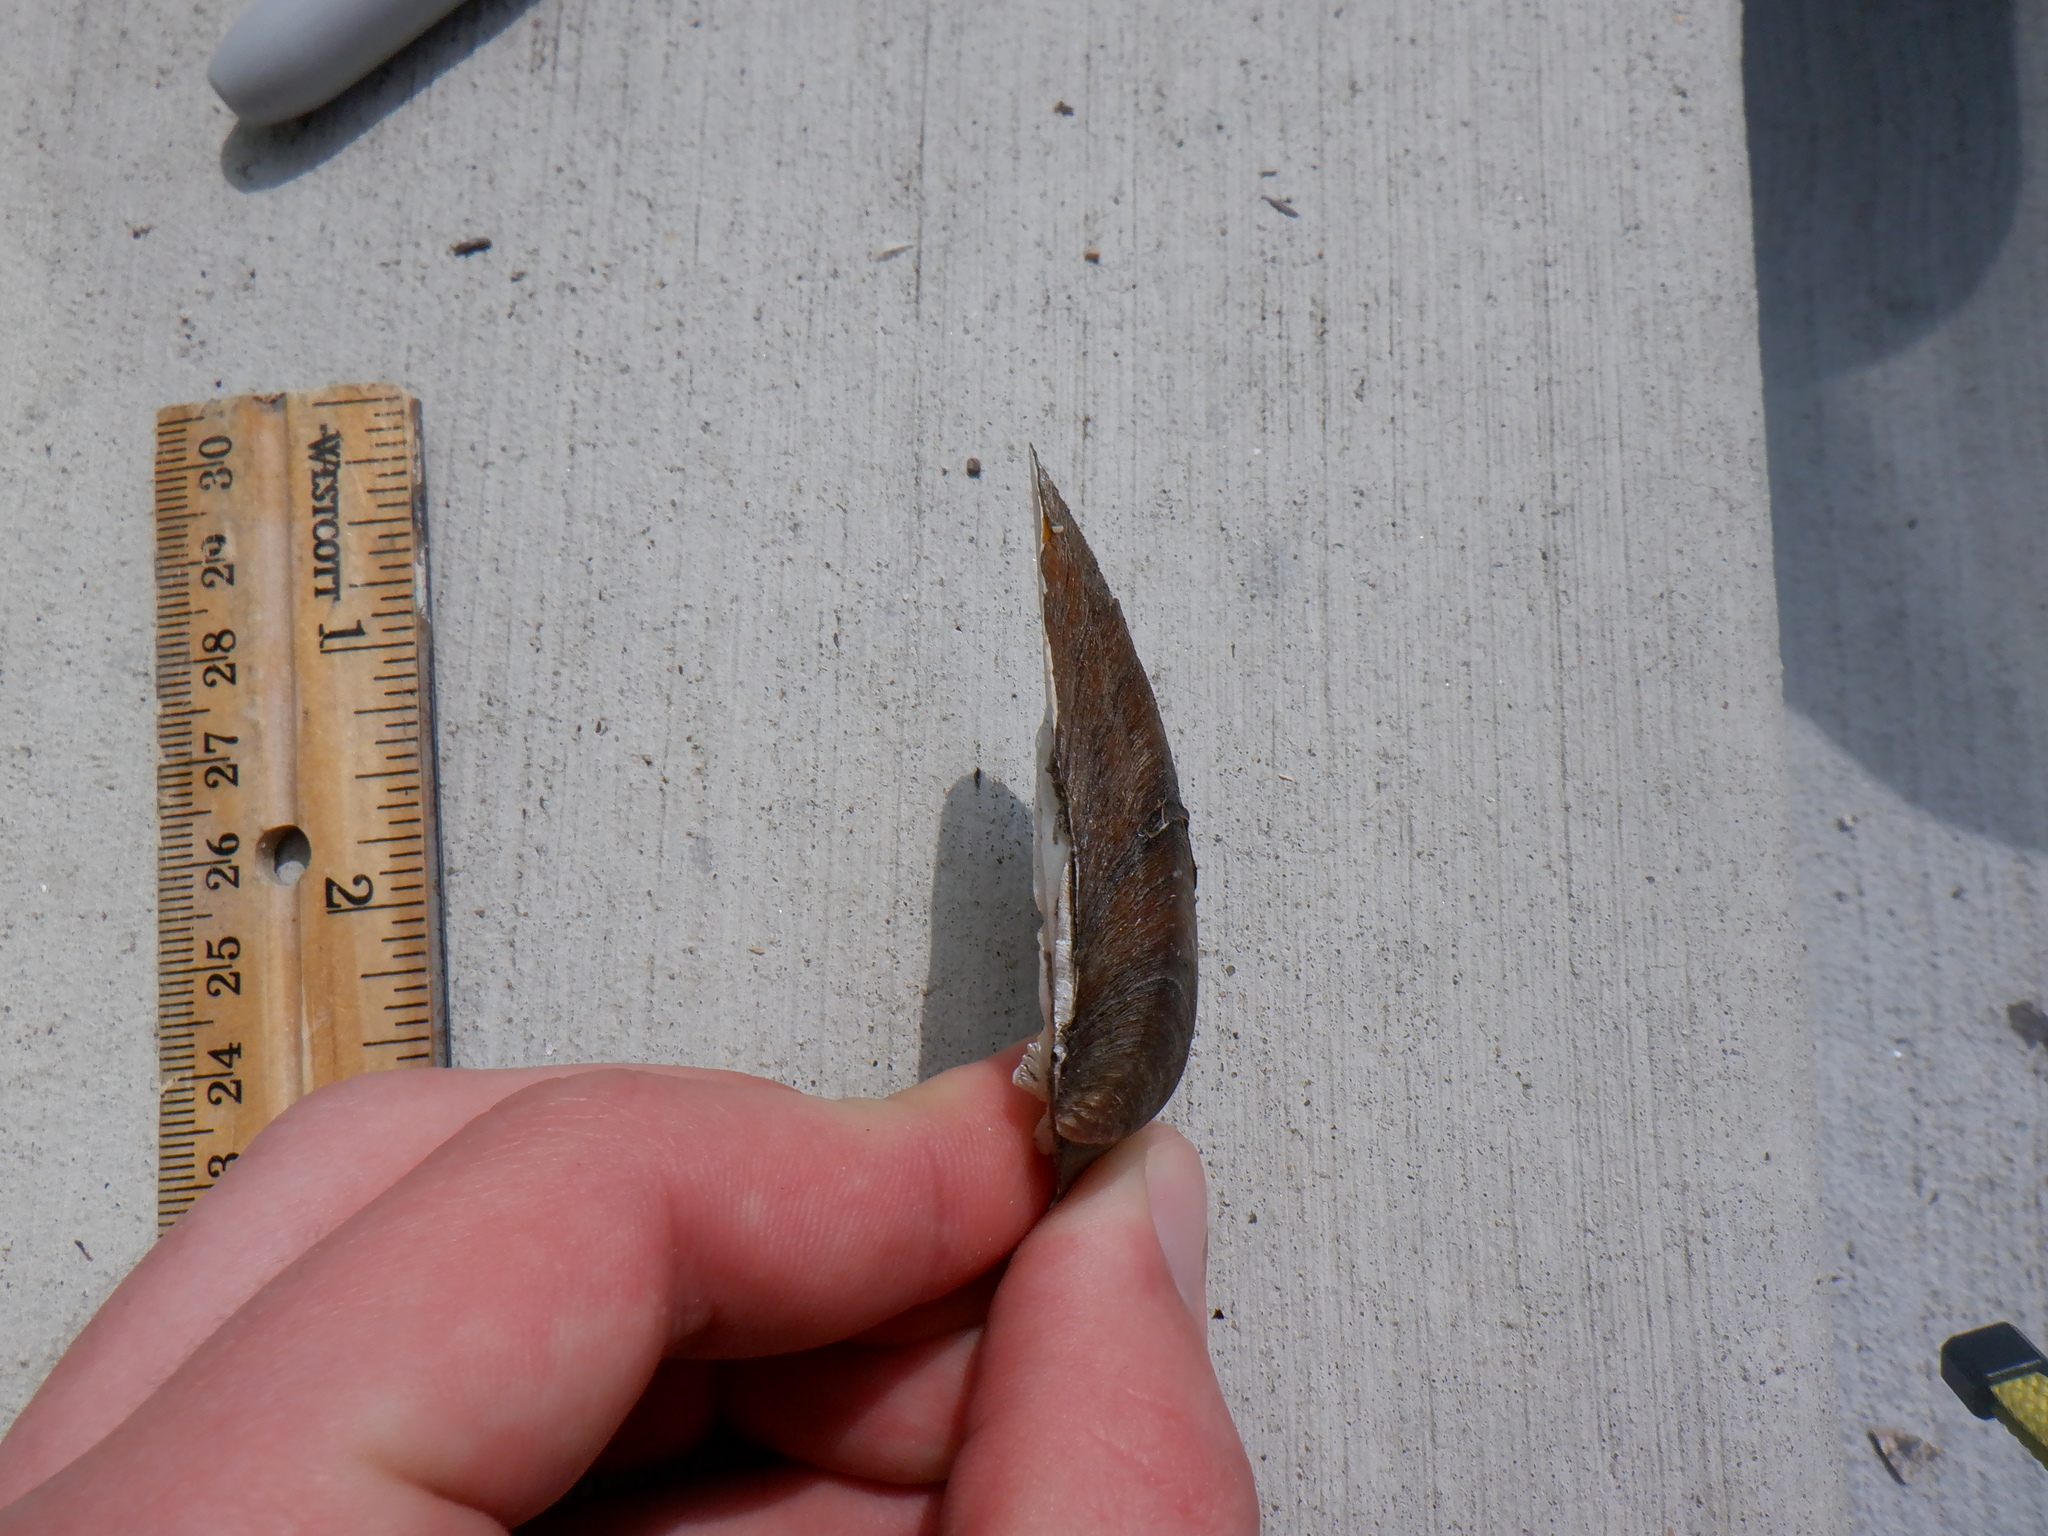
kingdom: Animalia
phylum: Mollusca
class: Bivalvia
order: Unionida
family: Unionidae
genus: Fusconaia
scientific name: Fusconaia flava
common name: Wabash pigtoe
